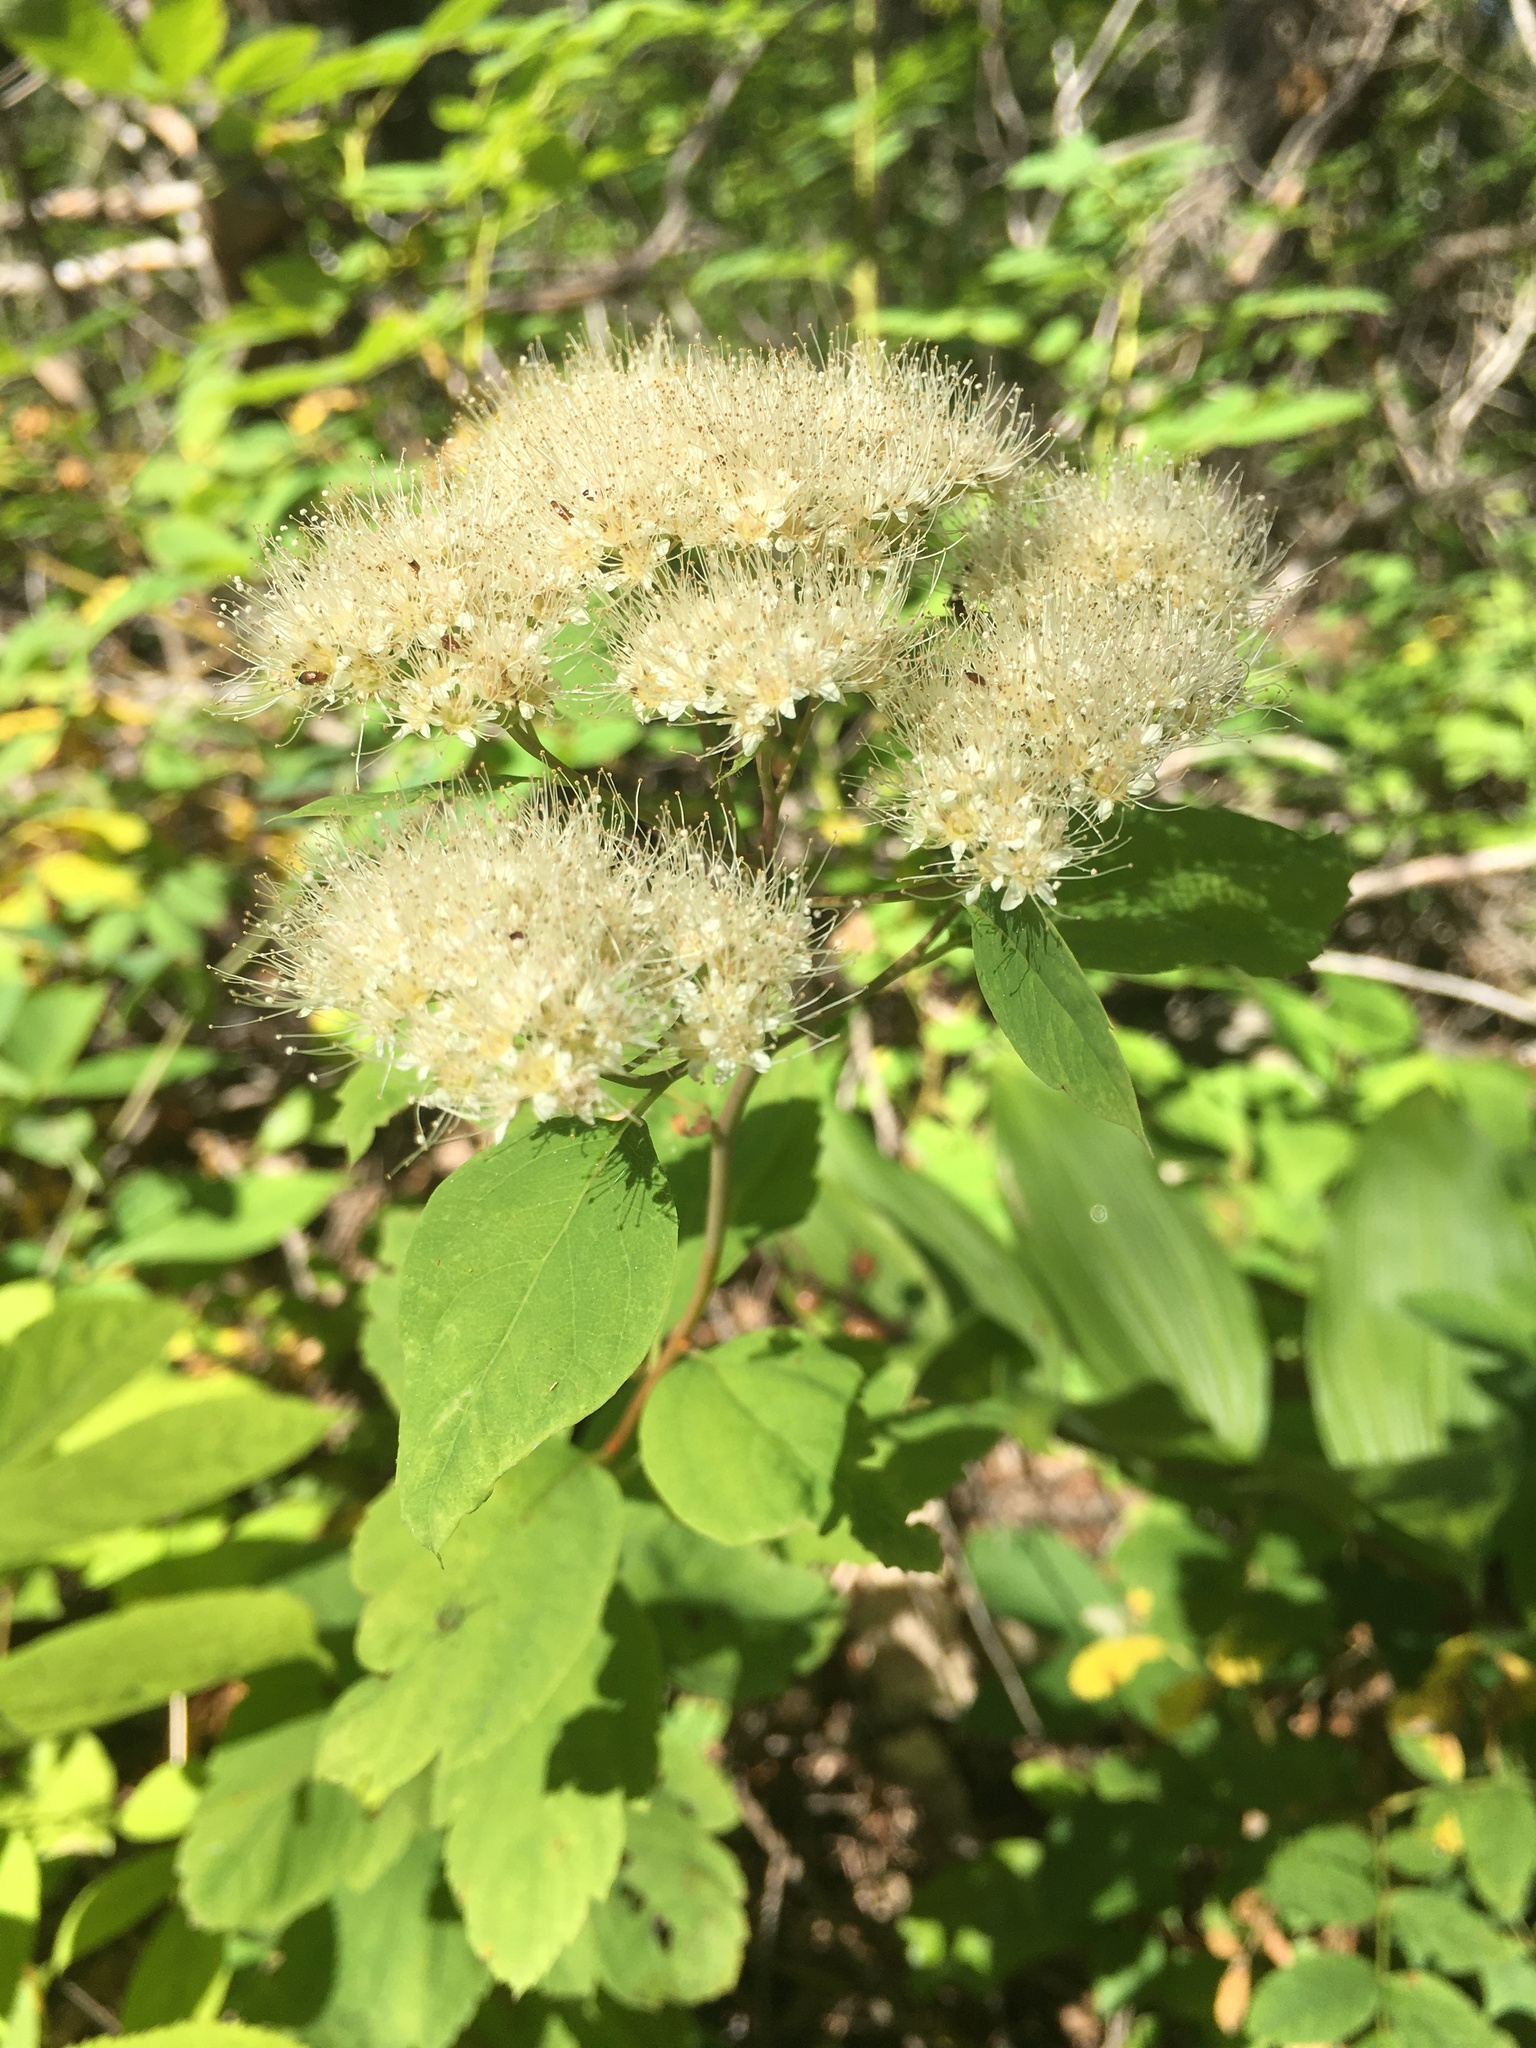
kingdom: Plantae
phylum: Tracheophyta
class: Magnoliopsida
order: Rosales
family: Rosaceae
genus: Spiraea
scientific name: Spiraea lucida
